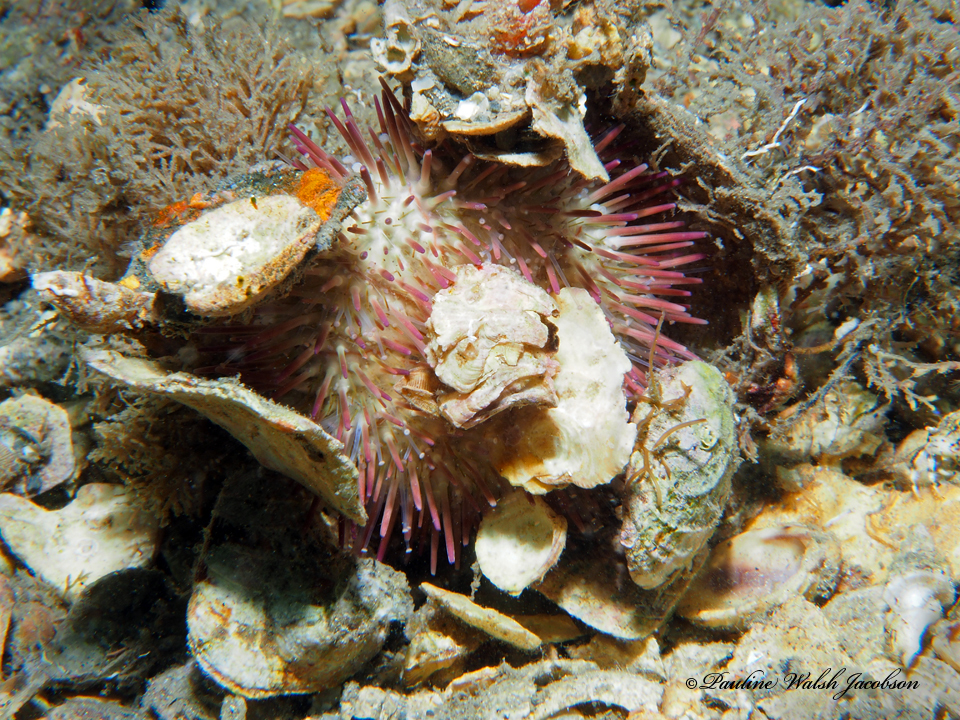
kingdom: Animalia
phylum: Echinodermata
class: Echinoidea
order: Camarodonta
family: Toxopneustidae
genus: Lytechinus
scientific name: Lytechinus variegatus
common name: Variegated urchin
